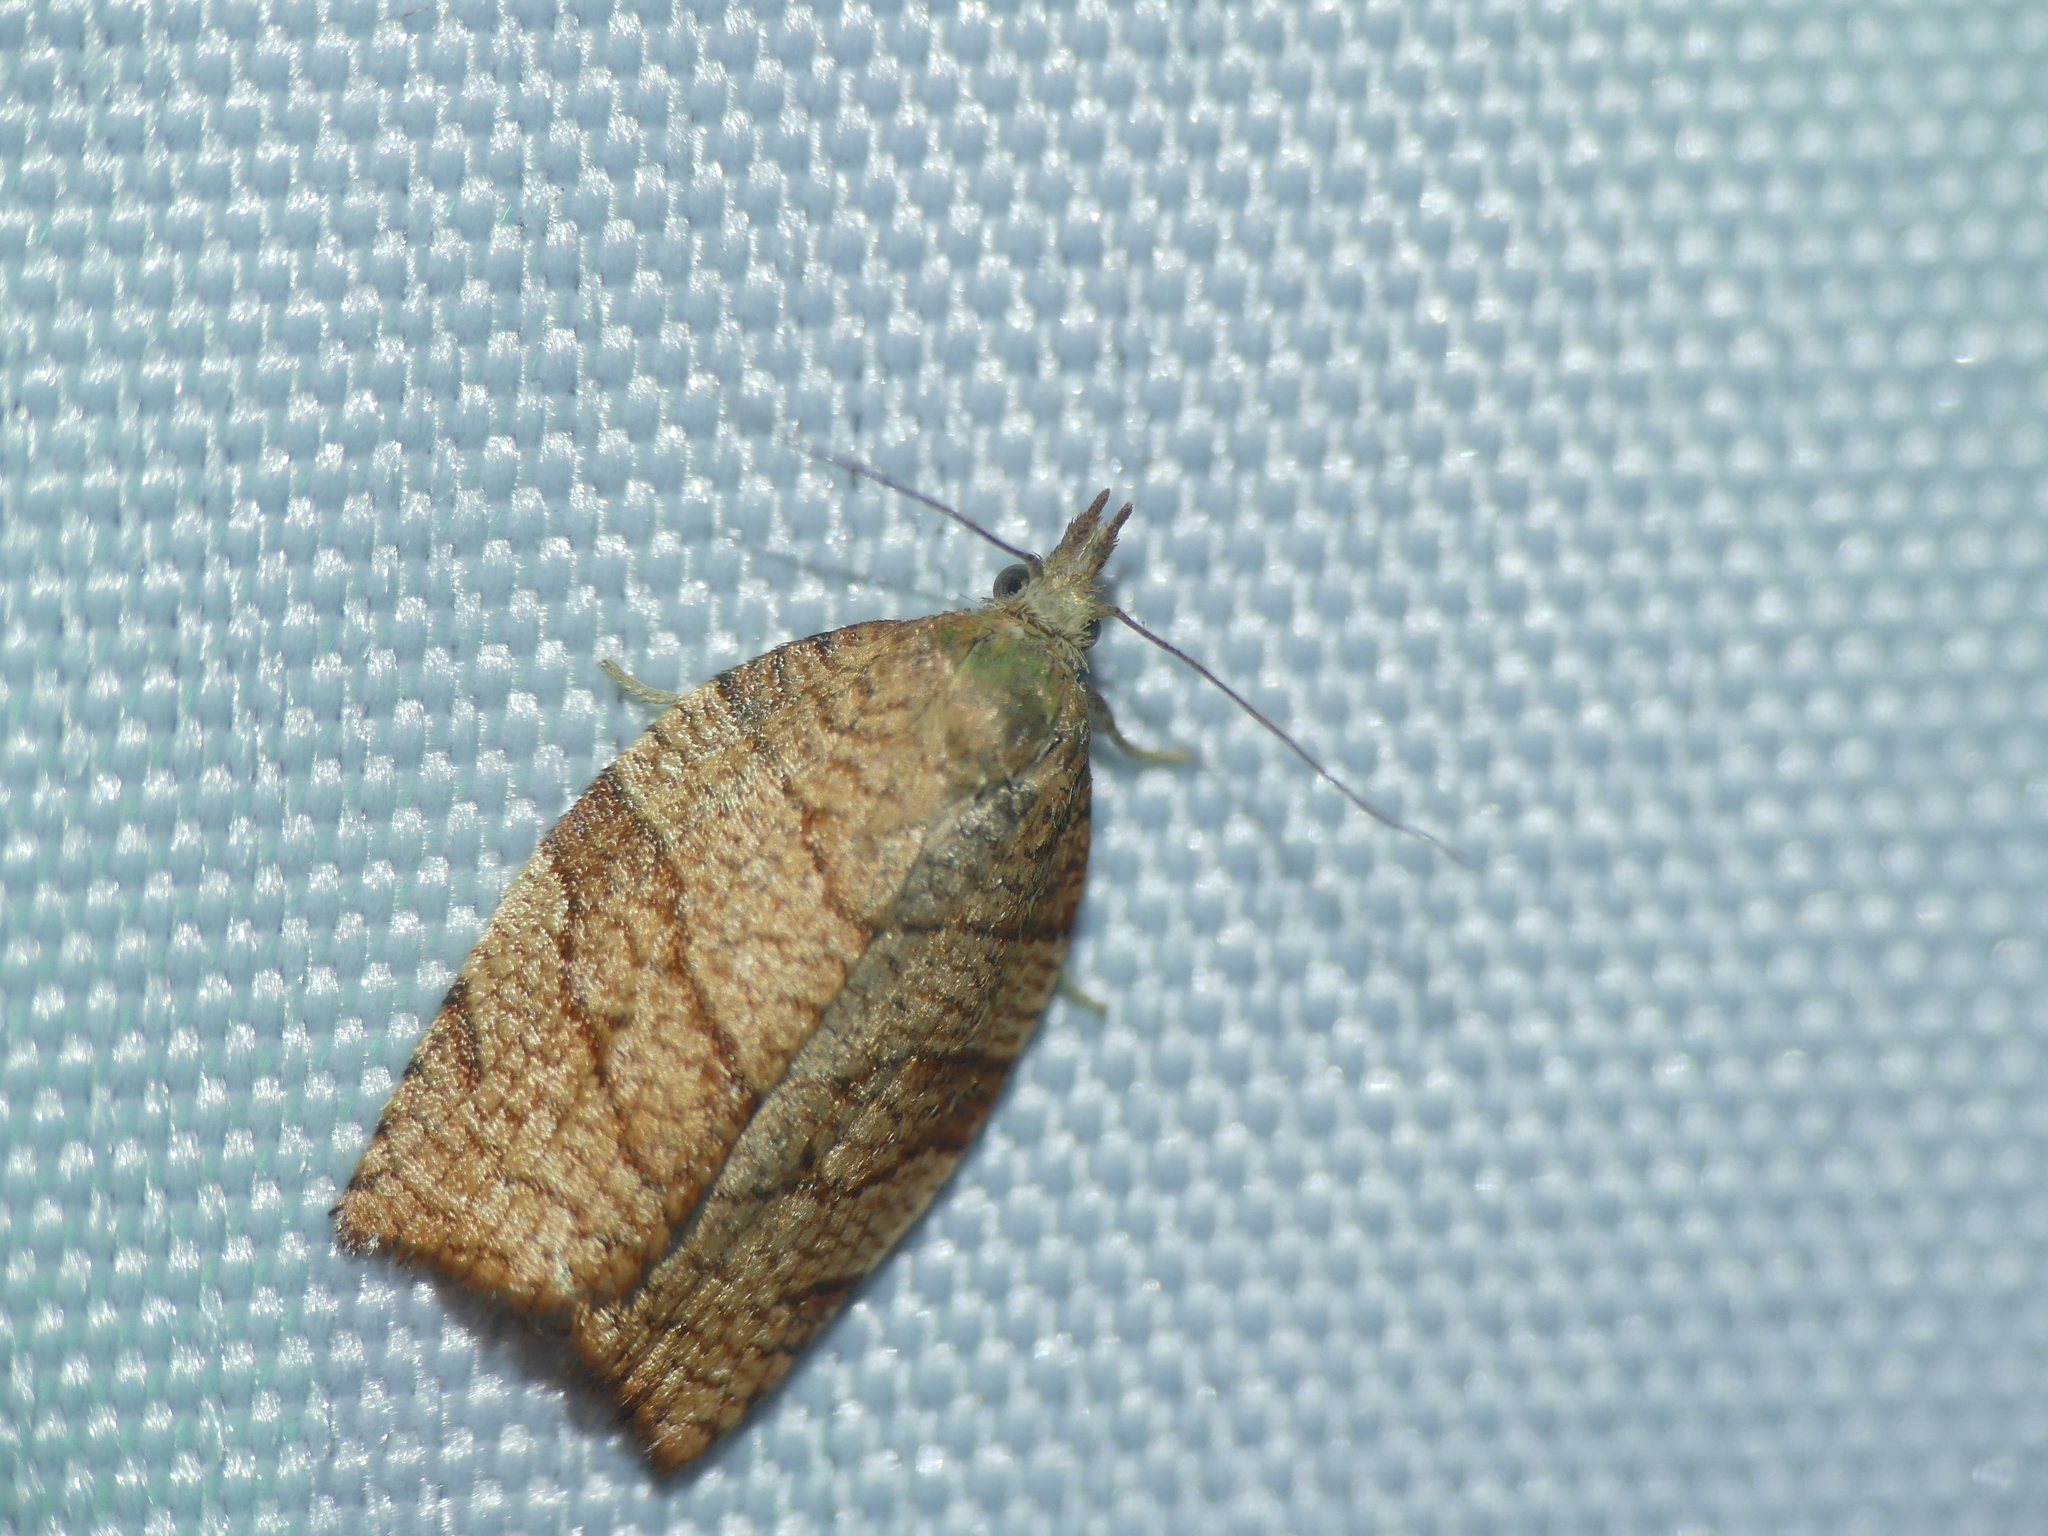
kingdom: Animalia
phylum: Arthropoda
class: Insecta
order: Lepidoptera
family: Tortricidae
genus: Pandemis
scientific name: Pandemis corylana
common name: Chequered fruit-tree tortrix
